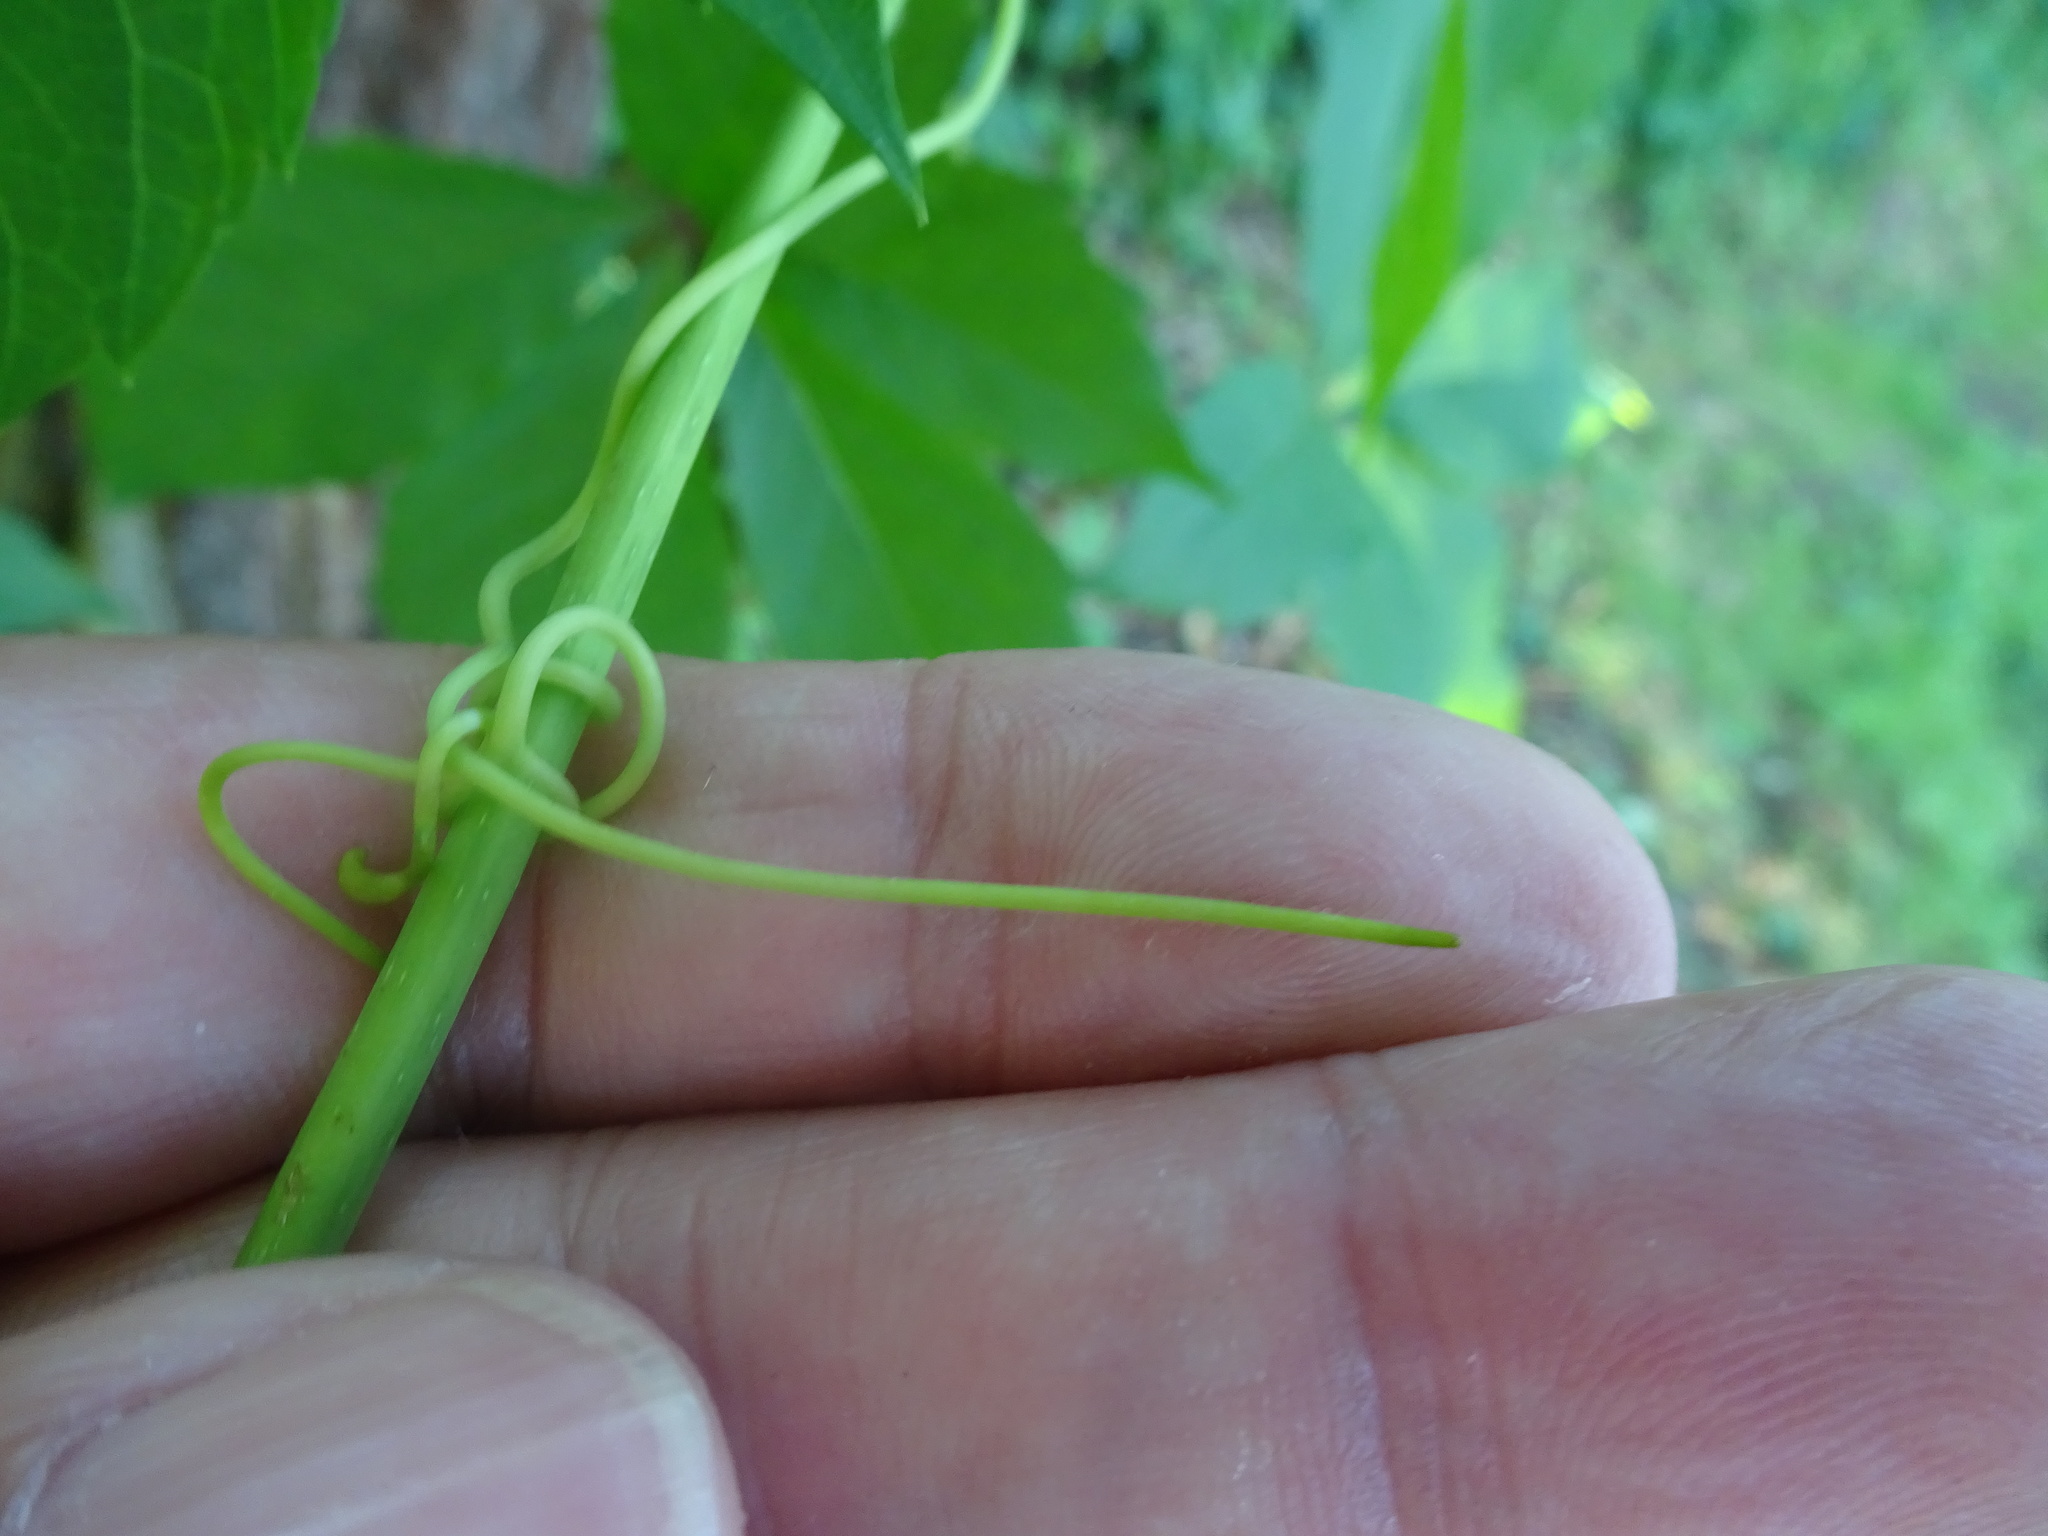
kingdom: Plantae
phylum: Tracheophyta
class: Magnoliopsida
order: Vitales
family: Vitaceae
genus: Parthenocissus
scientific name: Parthenocissus inserta
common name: False virginia-creeper
